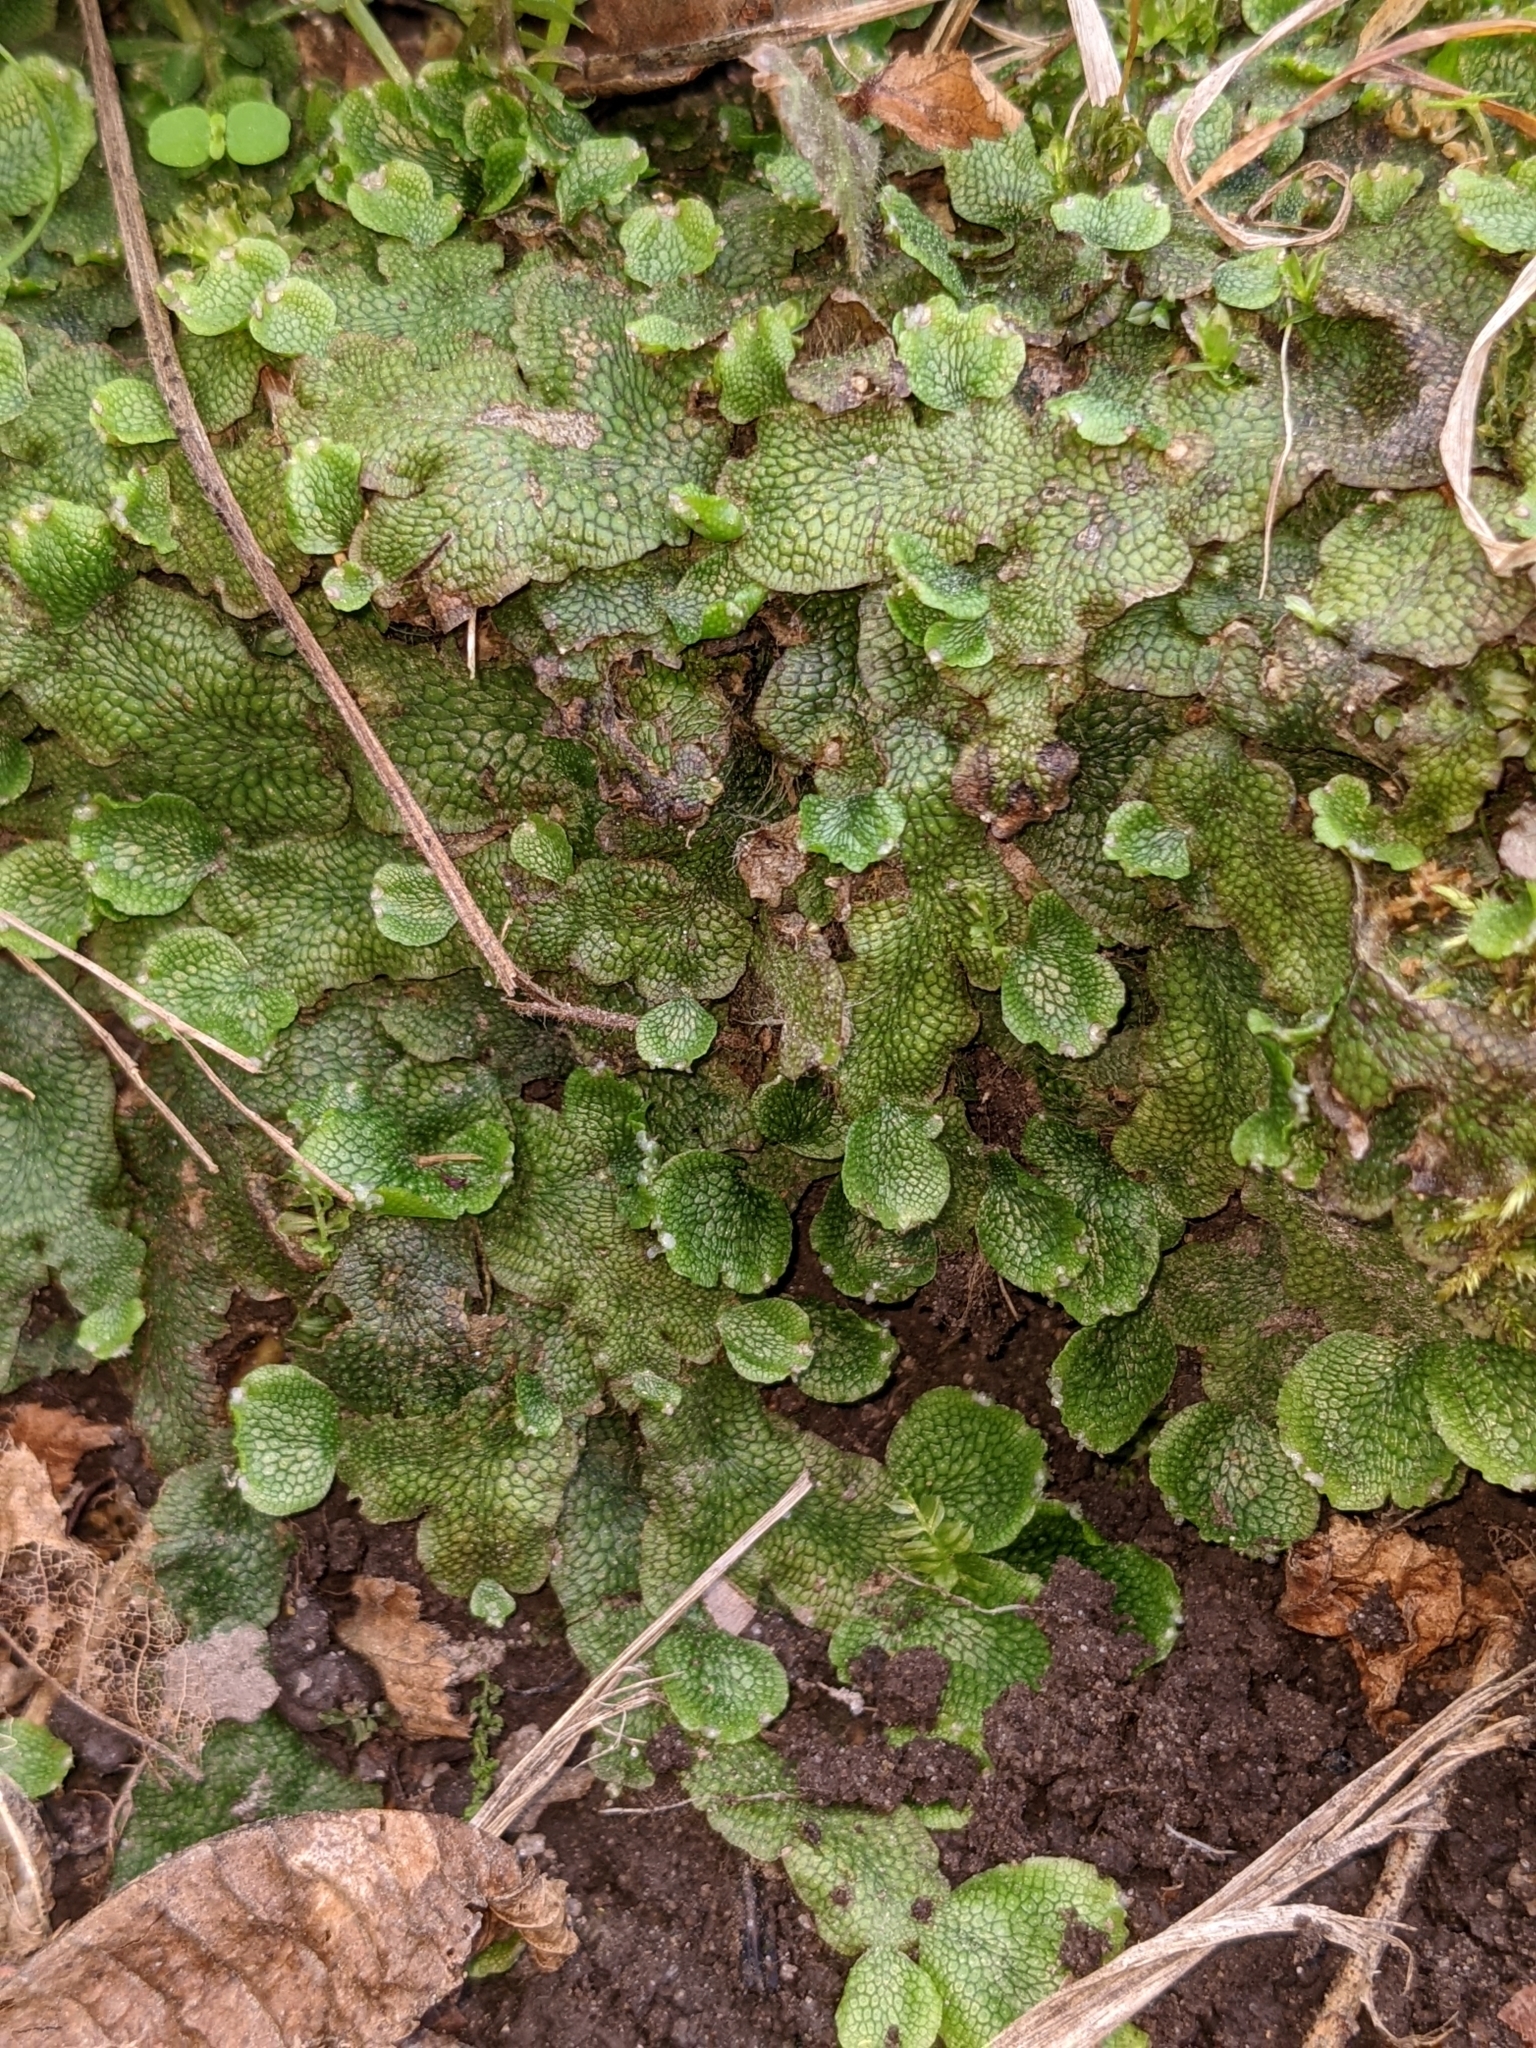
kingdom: Plantae
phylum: Marchantiophyta
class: Marchantiopsida
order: Marchantiales
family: Conocephalaceae
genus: Conocephalum
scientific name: Conocephalum salebrosum
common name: Cat-tongue liverwort
